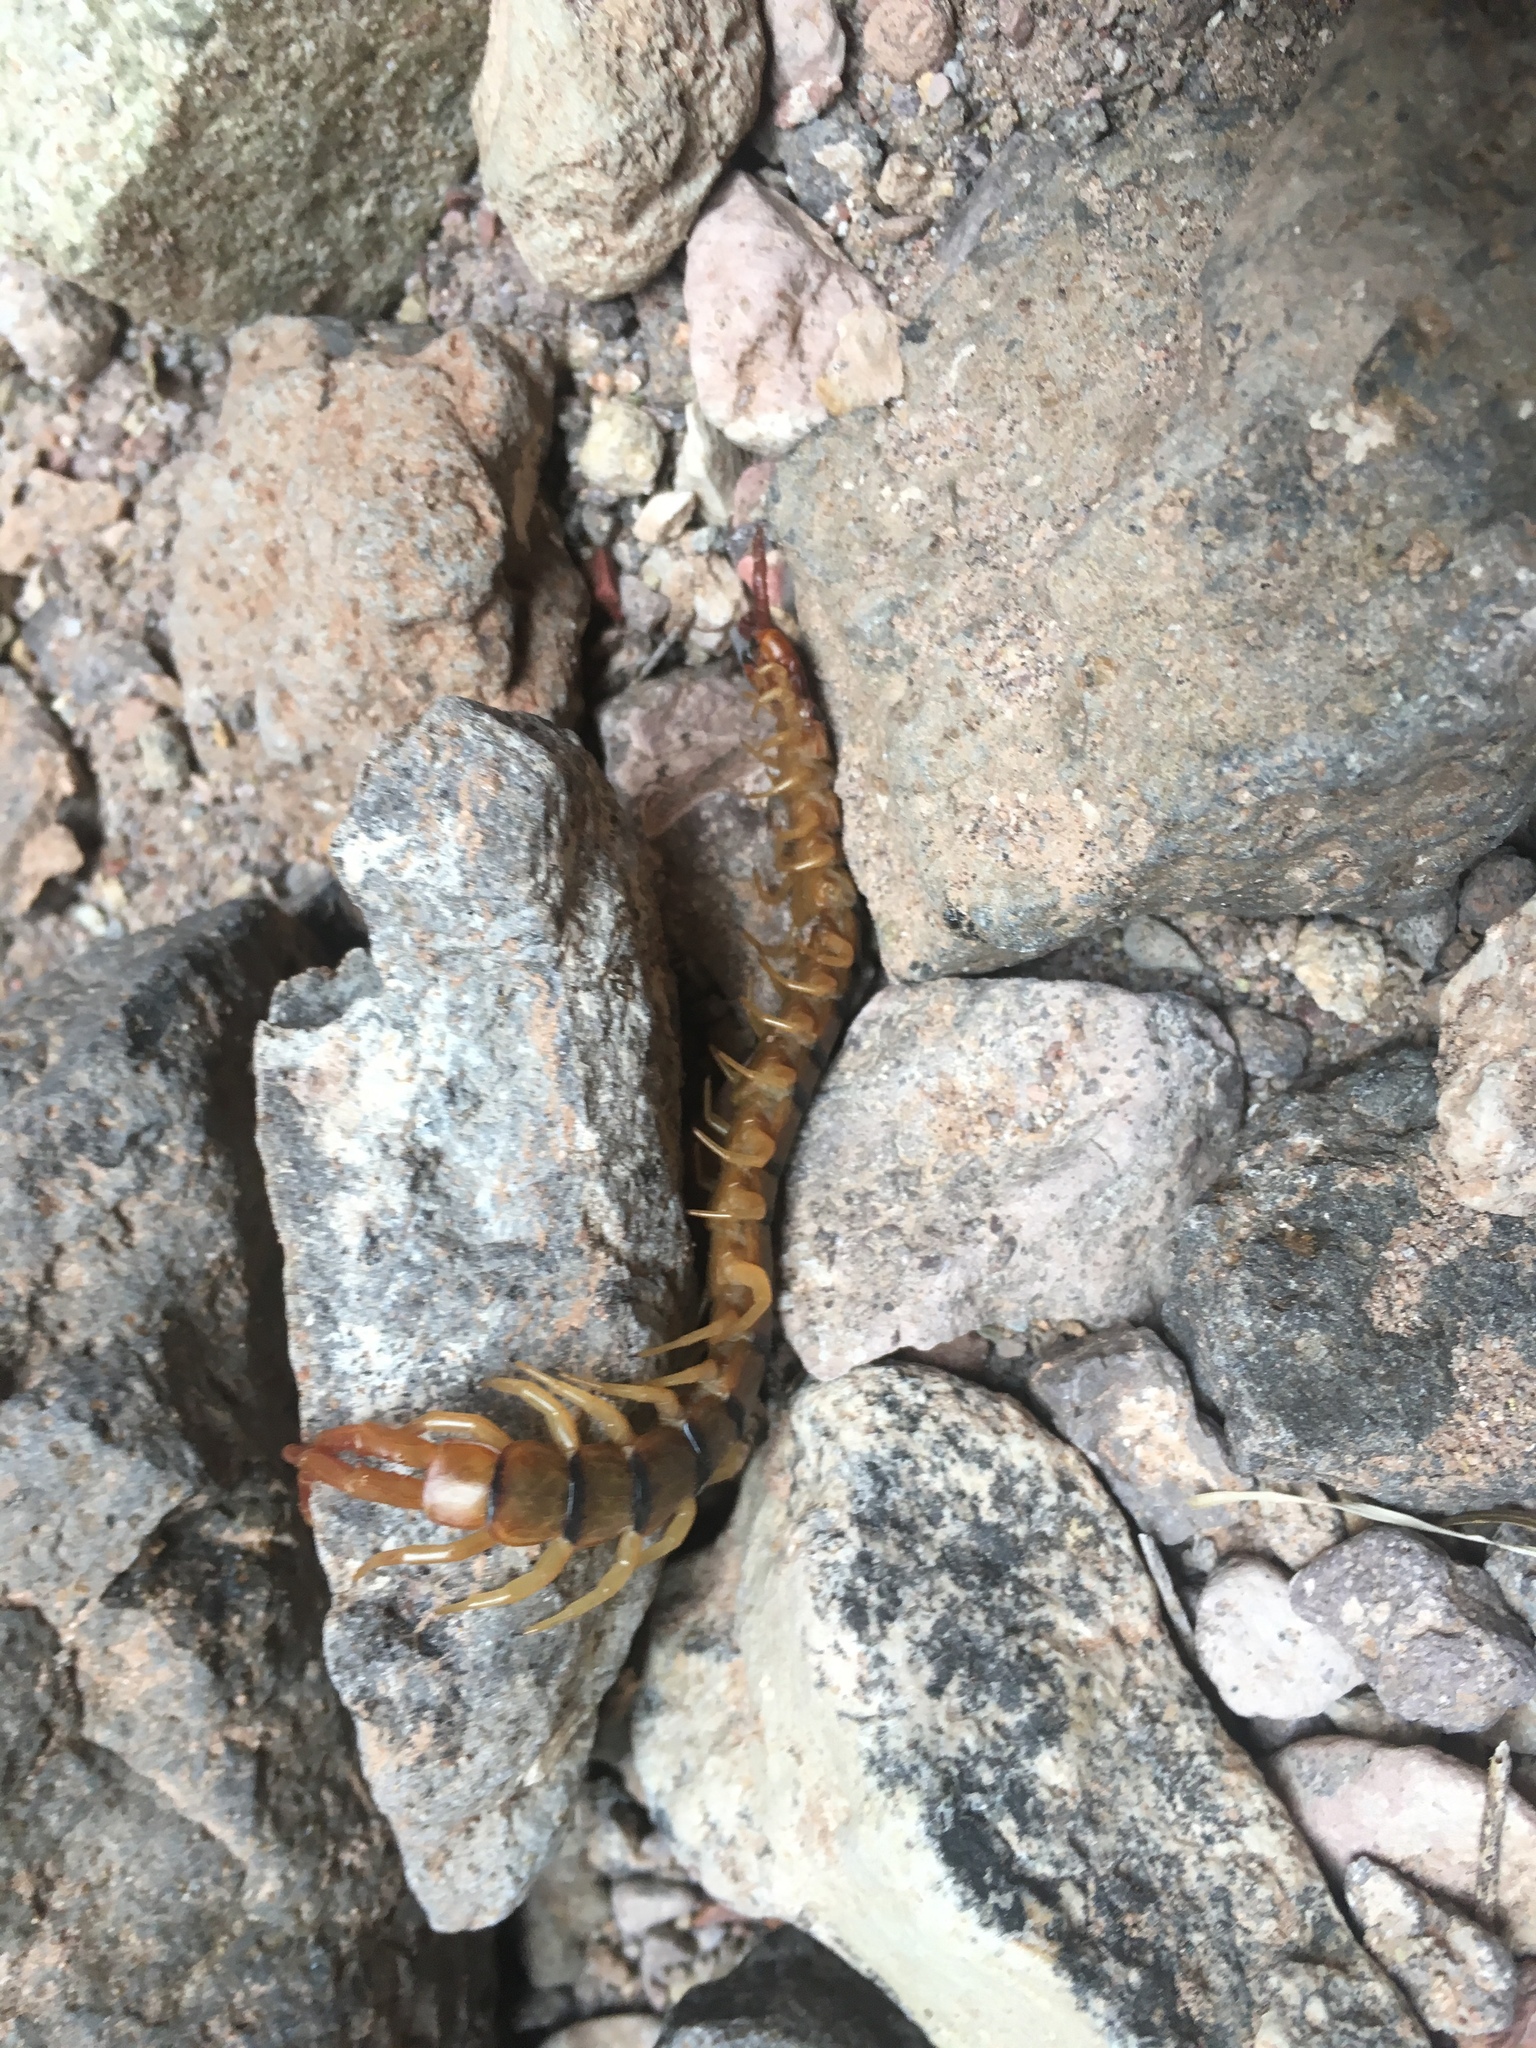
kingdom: Animalia
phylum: Arthropoda
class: Chilopoda
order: Scolopendromorpha
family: Scolopendridae
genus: Scolopendra
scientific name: Scolopendra polymorpha
